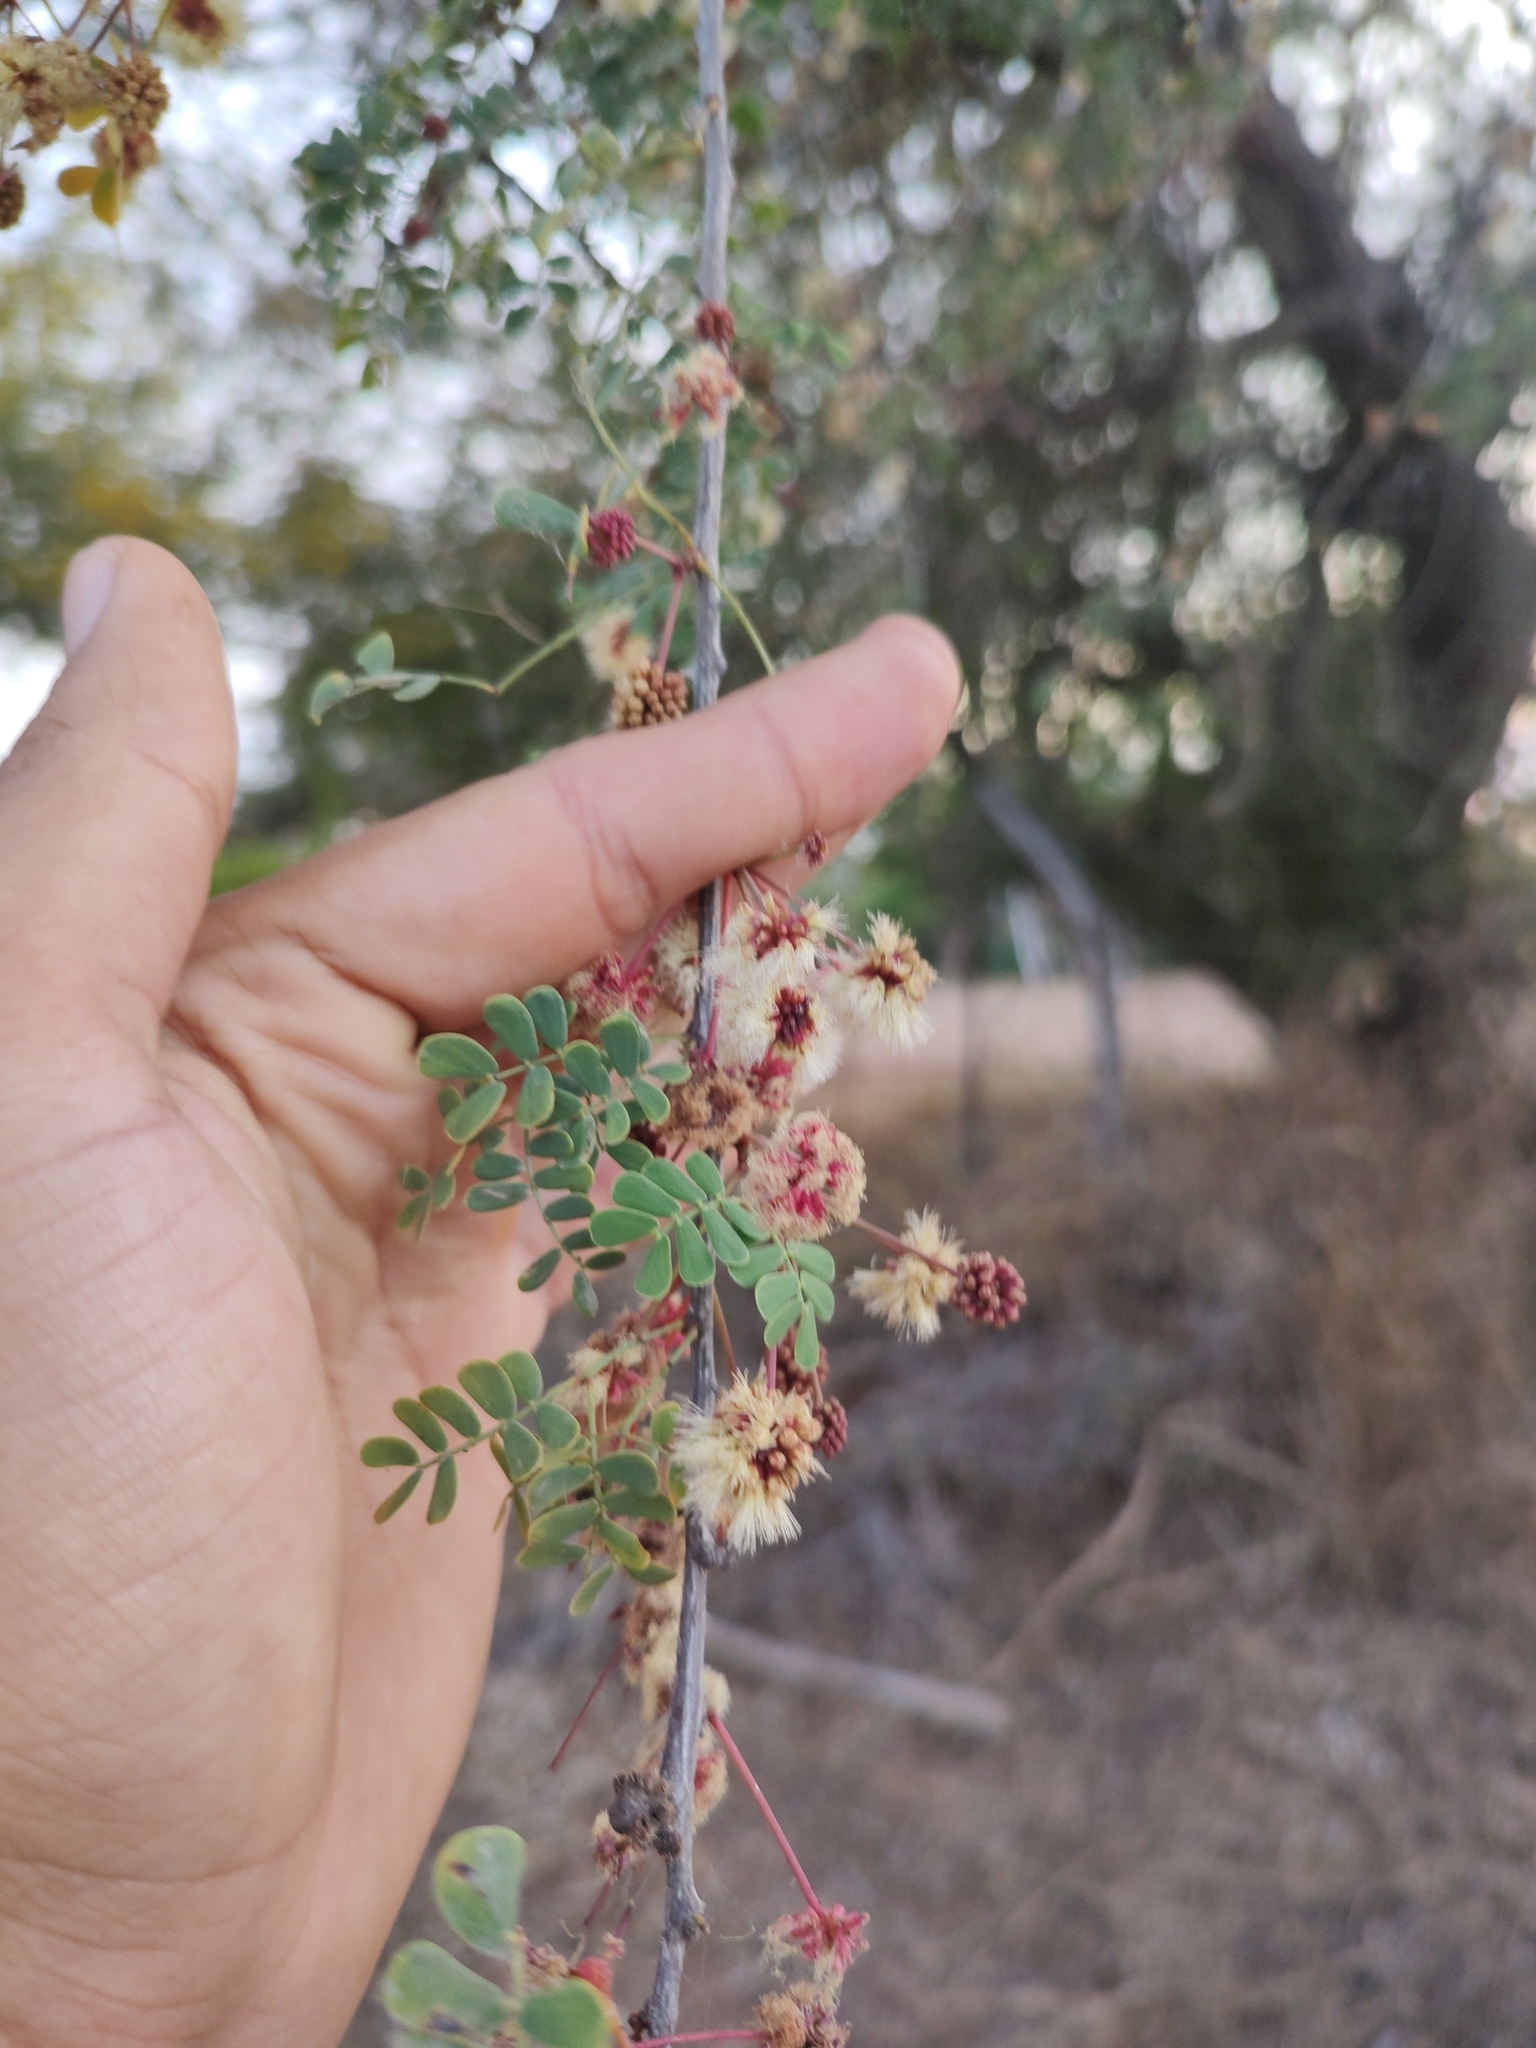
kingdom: Plantae
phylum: Tracheophyta
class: Magnoliopsida
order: Fabales
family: Fabaceae
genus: Senegalia
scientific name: Senegalia peninsularis
